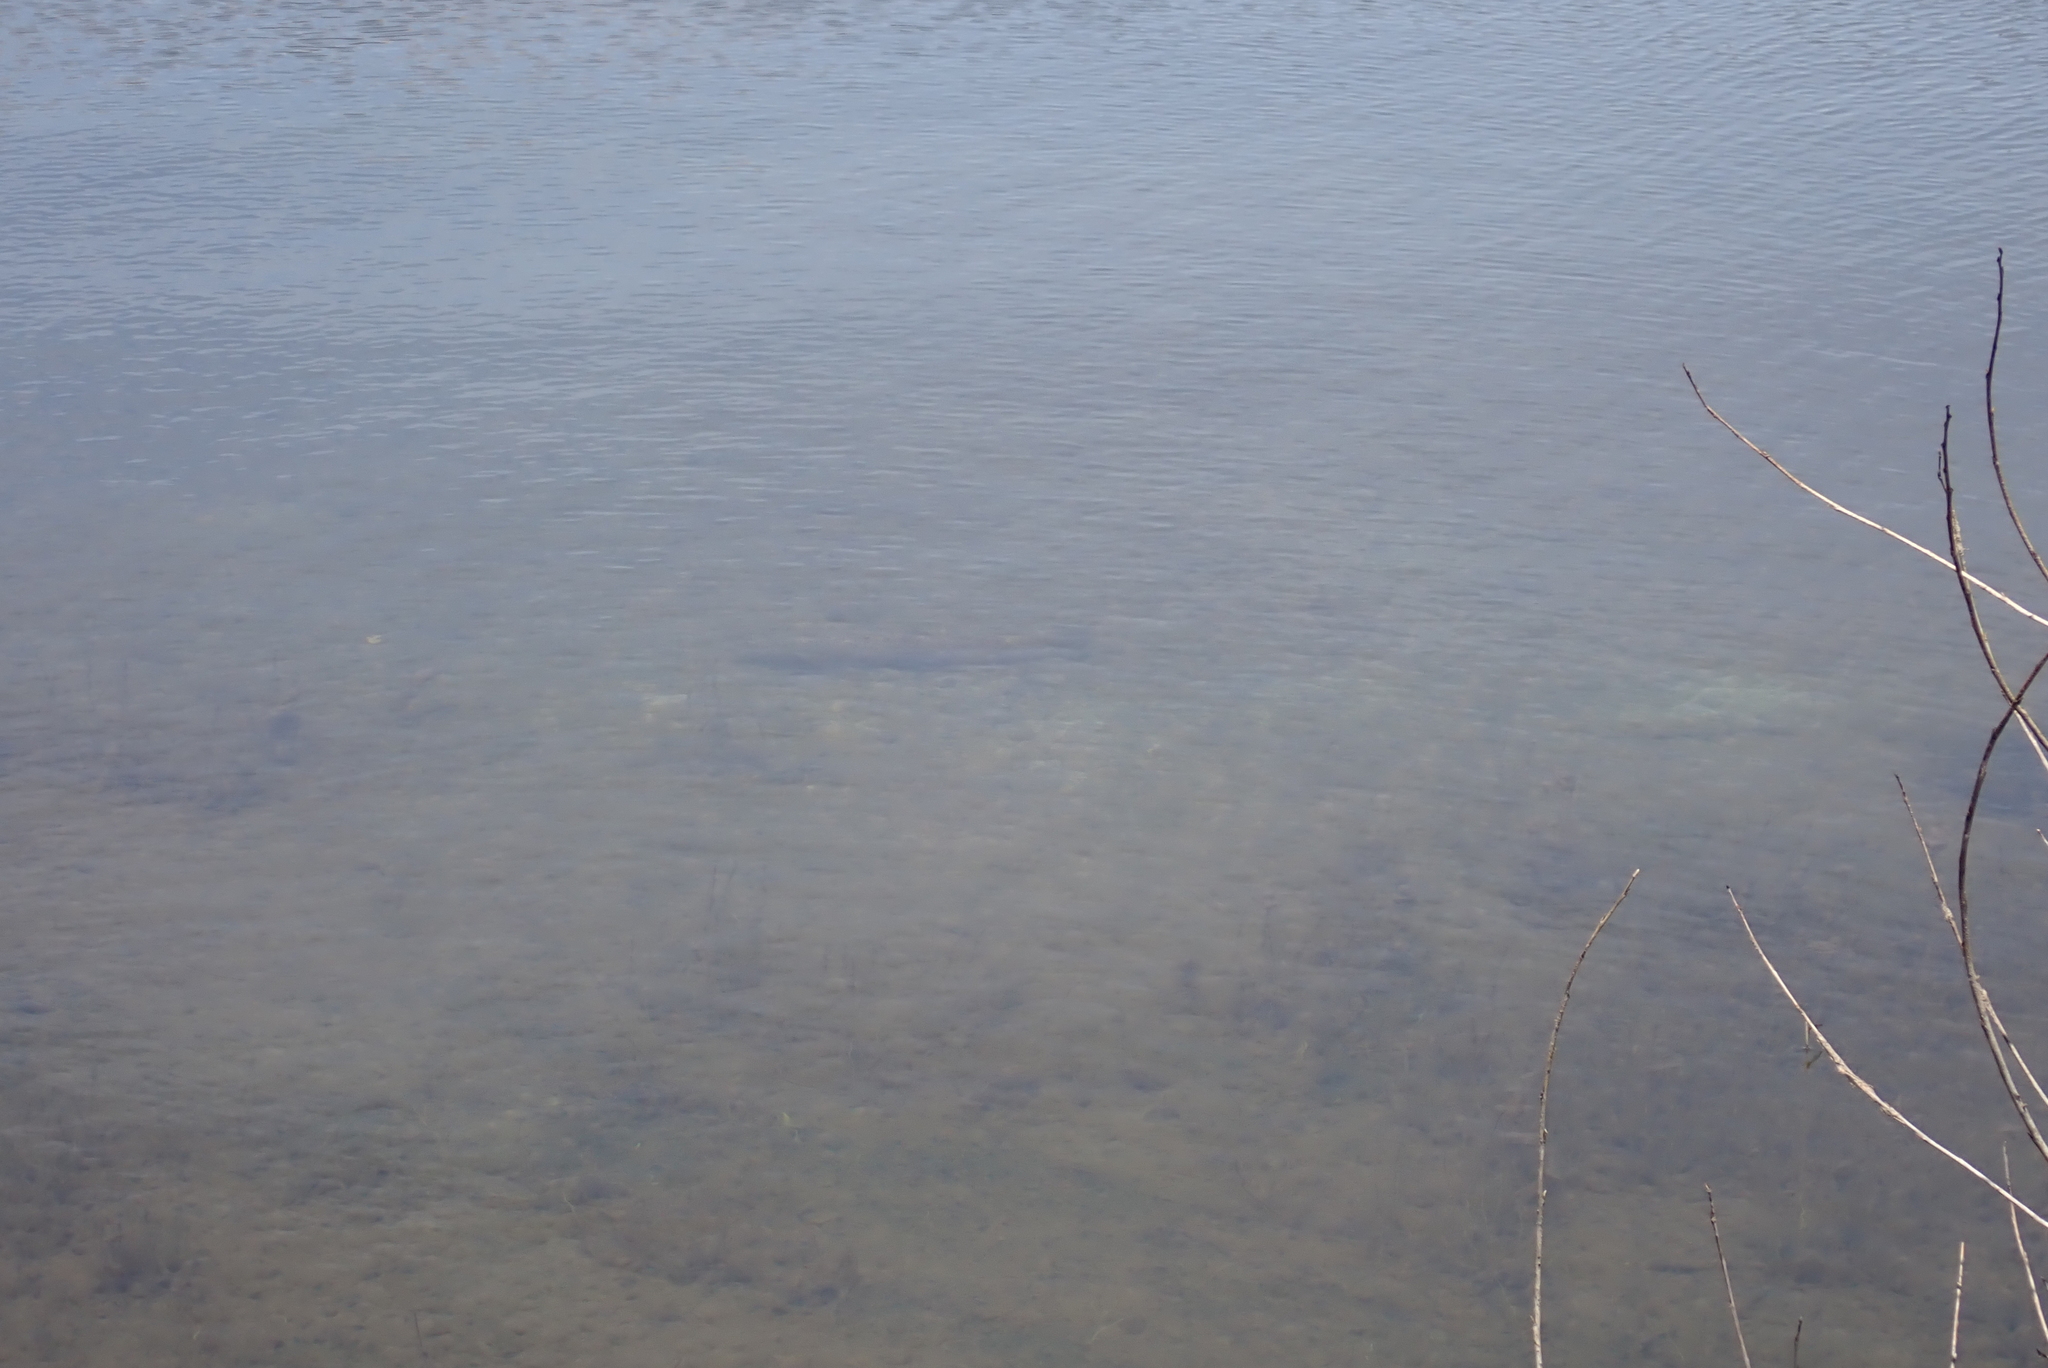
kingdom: Animalia
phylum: Chordata
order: Salmoniformes
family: Salmonidae
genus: Salmo
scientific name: Salmo trutta
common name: Brown trout
